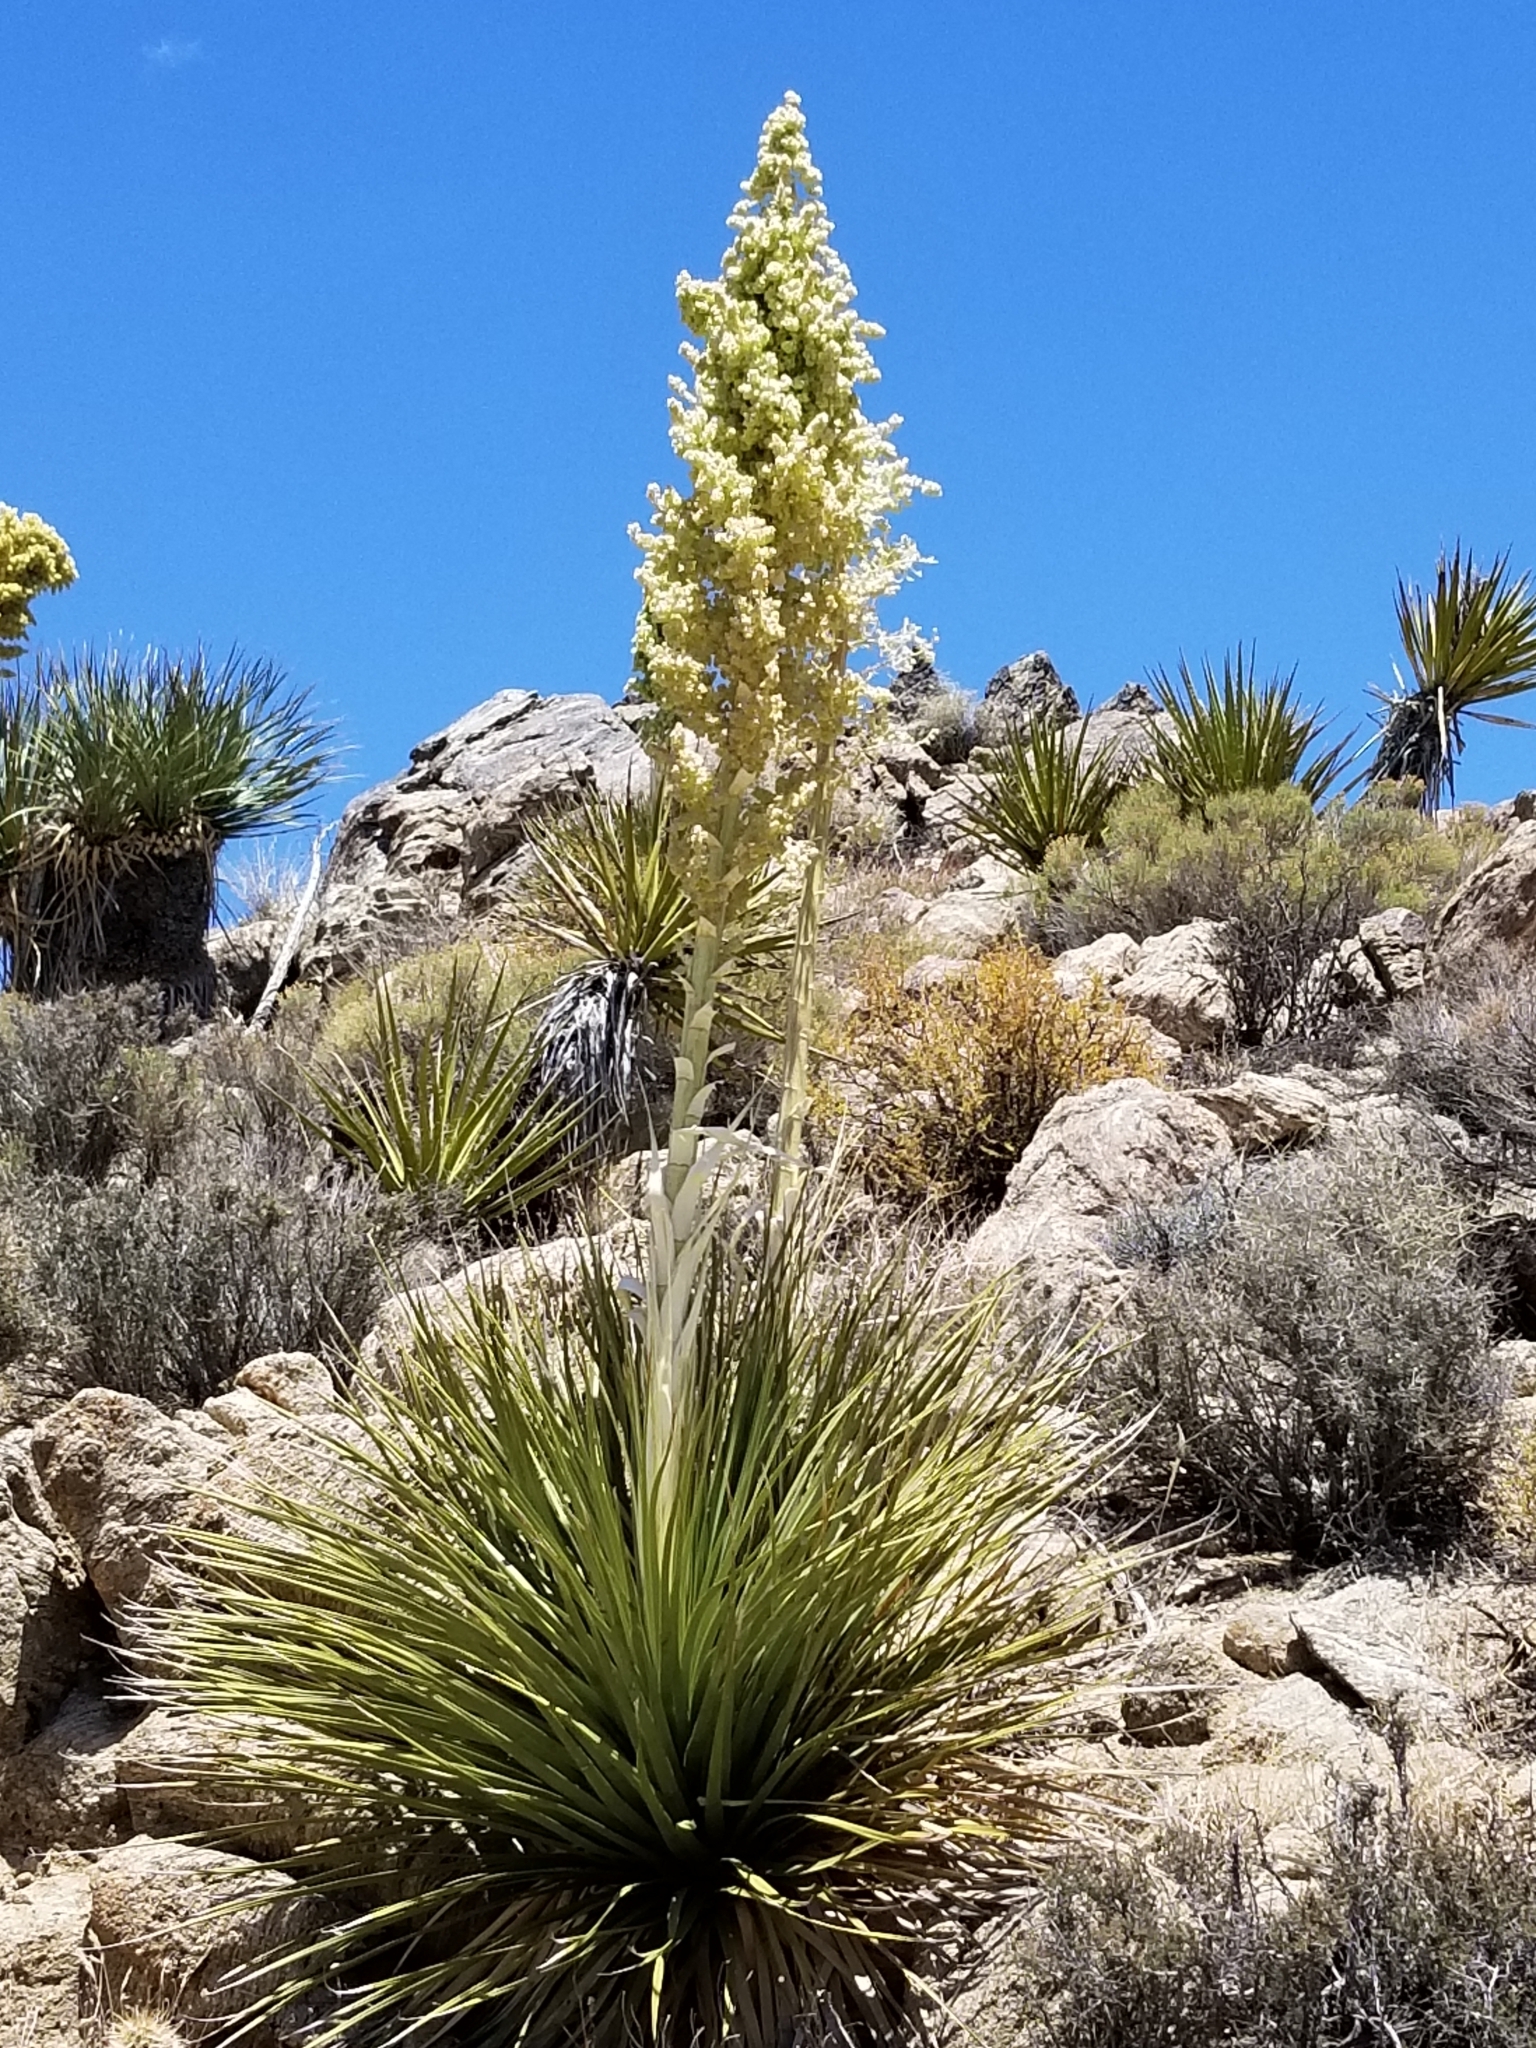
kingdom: Plantae
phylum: Tracheophyta
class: Liliopsida
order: Asparagales
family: Asparagaceae
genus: Nolina
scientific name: Nolina parryi
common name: Parry nolina
